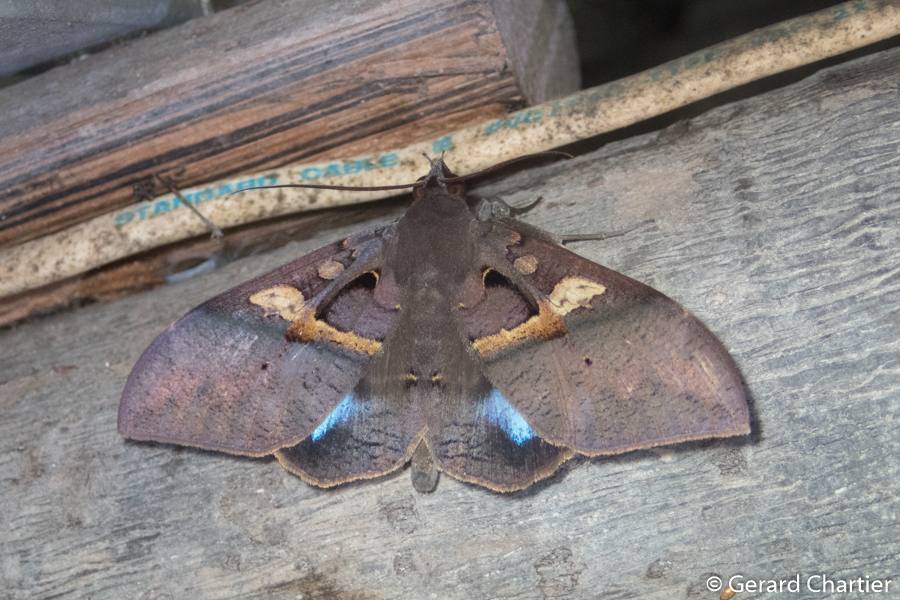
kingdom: Animalia
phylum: Arthropoda
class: Insecta
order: Lepidoptera
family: Erebidae
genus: Ischyja
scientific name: Ischyja inferna
